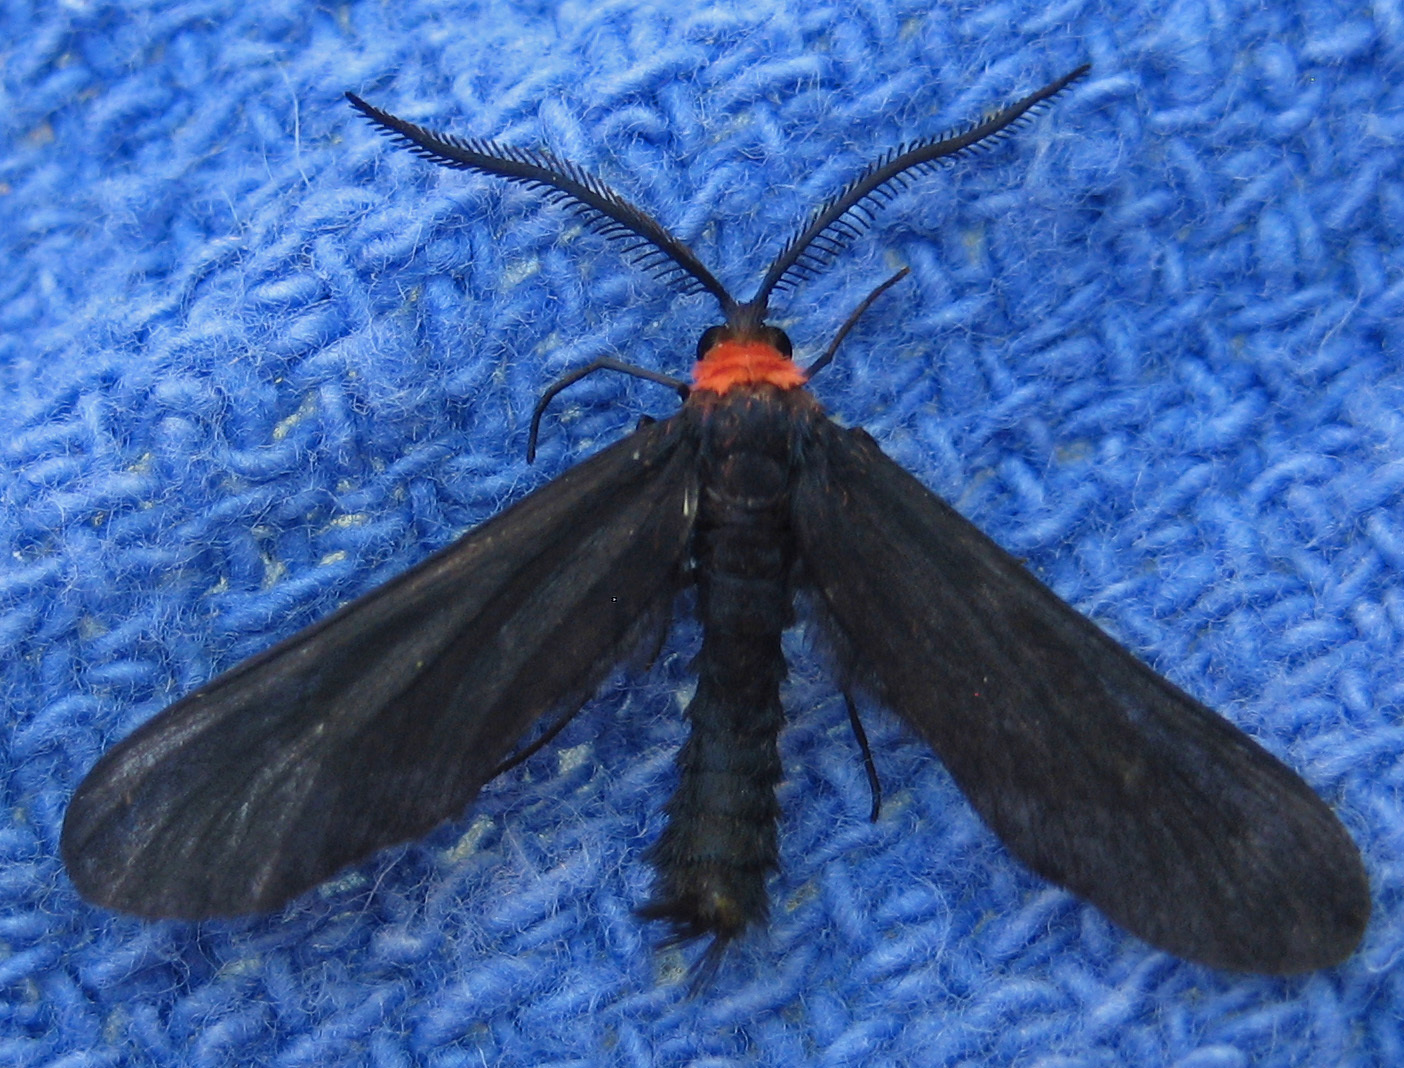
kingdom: Animalia
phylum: Arthropoda
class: Insecta
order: Lepidoptera
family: Zygaenidae
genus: Harrisina
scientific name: Harrisina americana
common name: Grapeleaf skeletonizer moth
